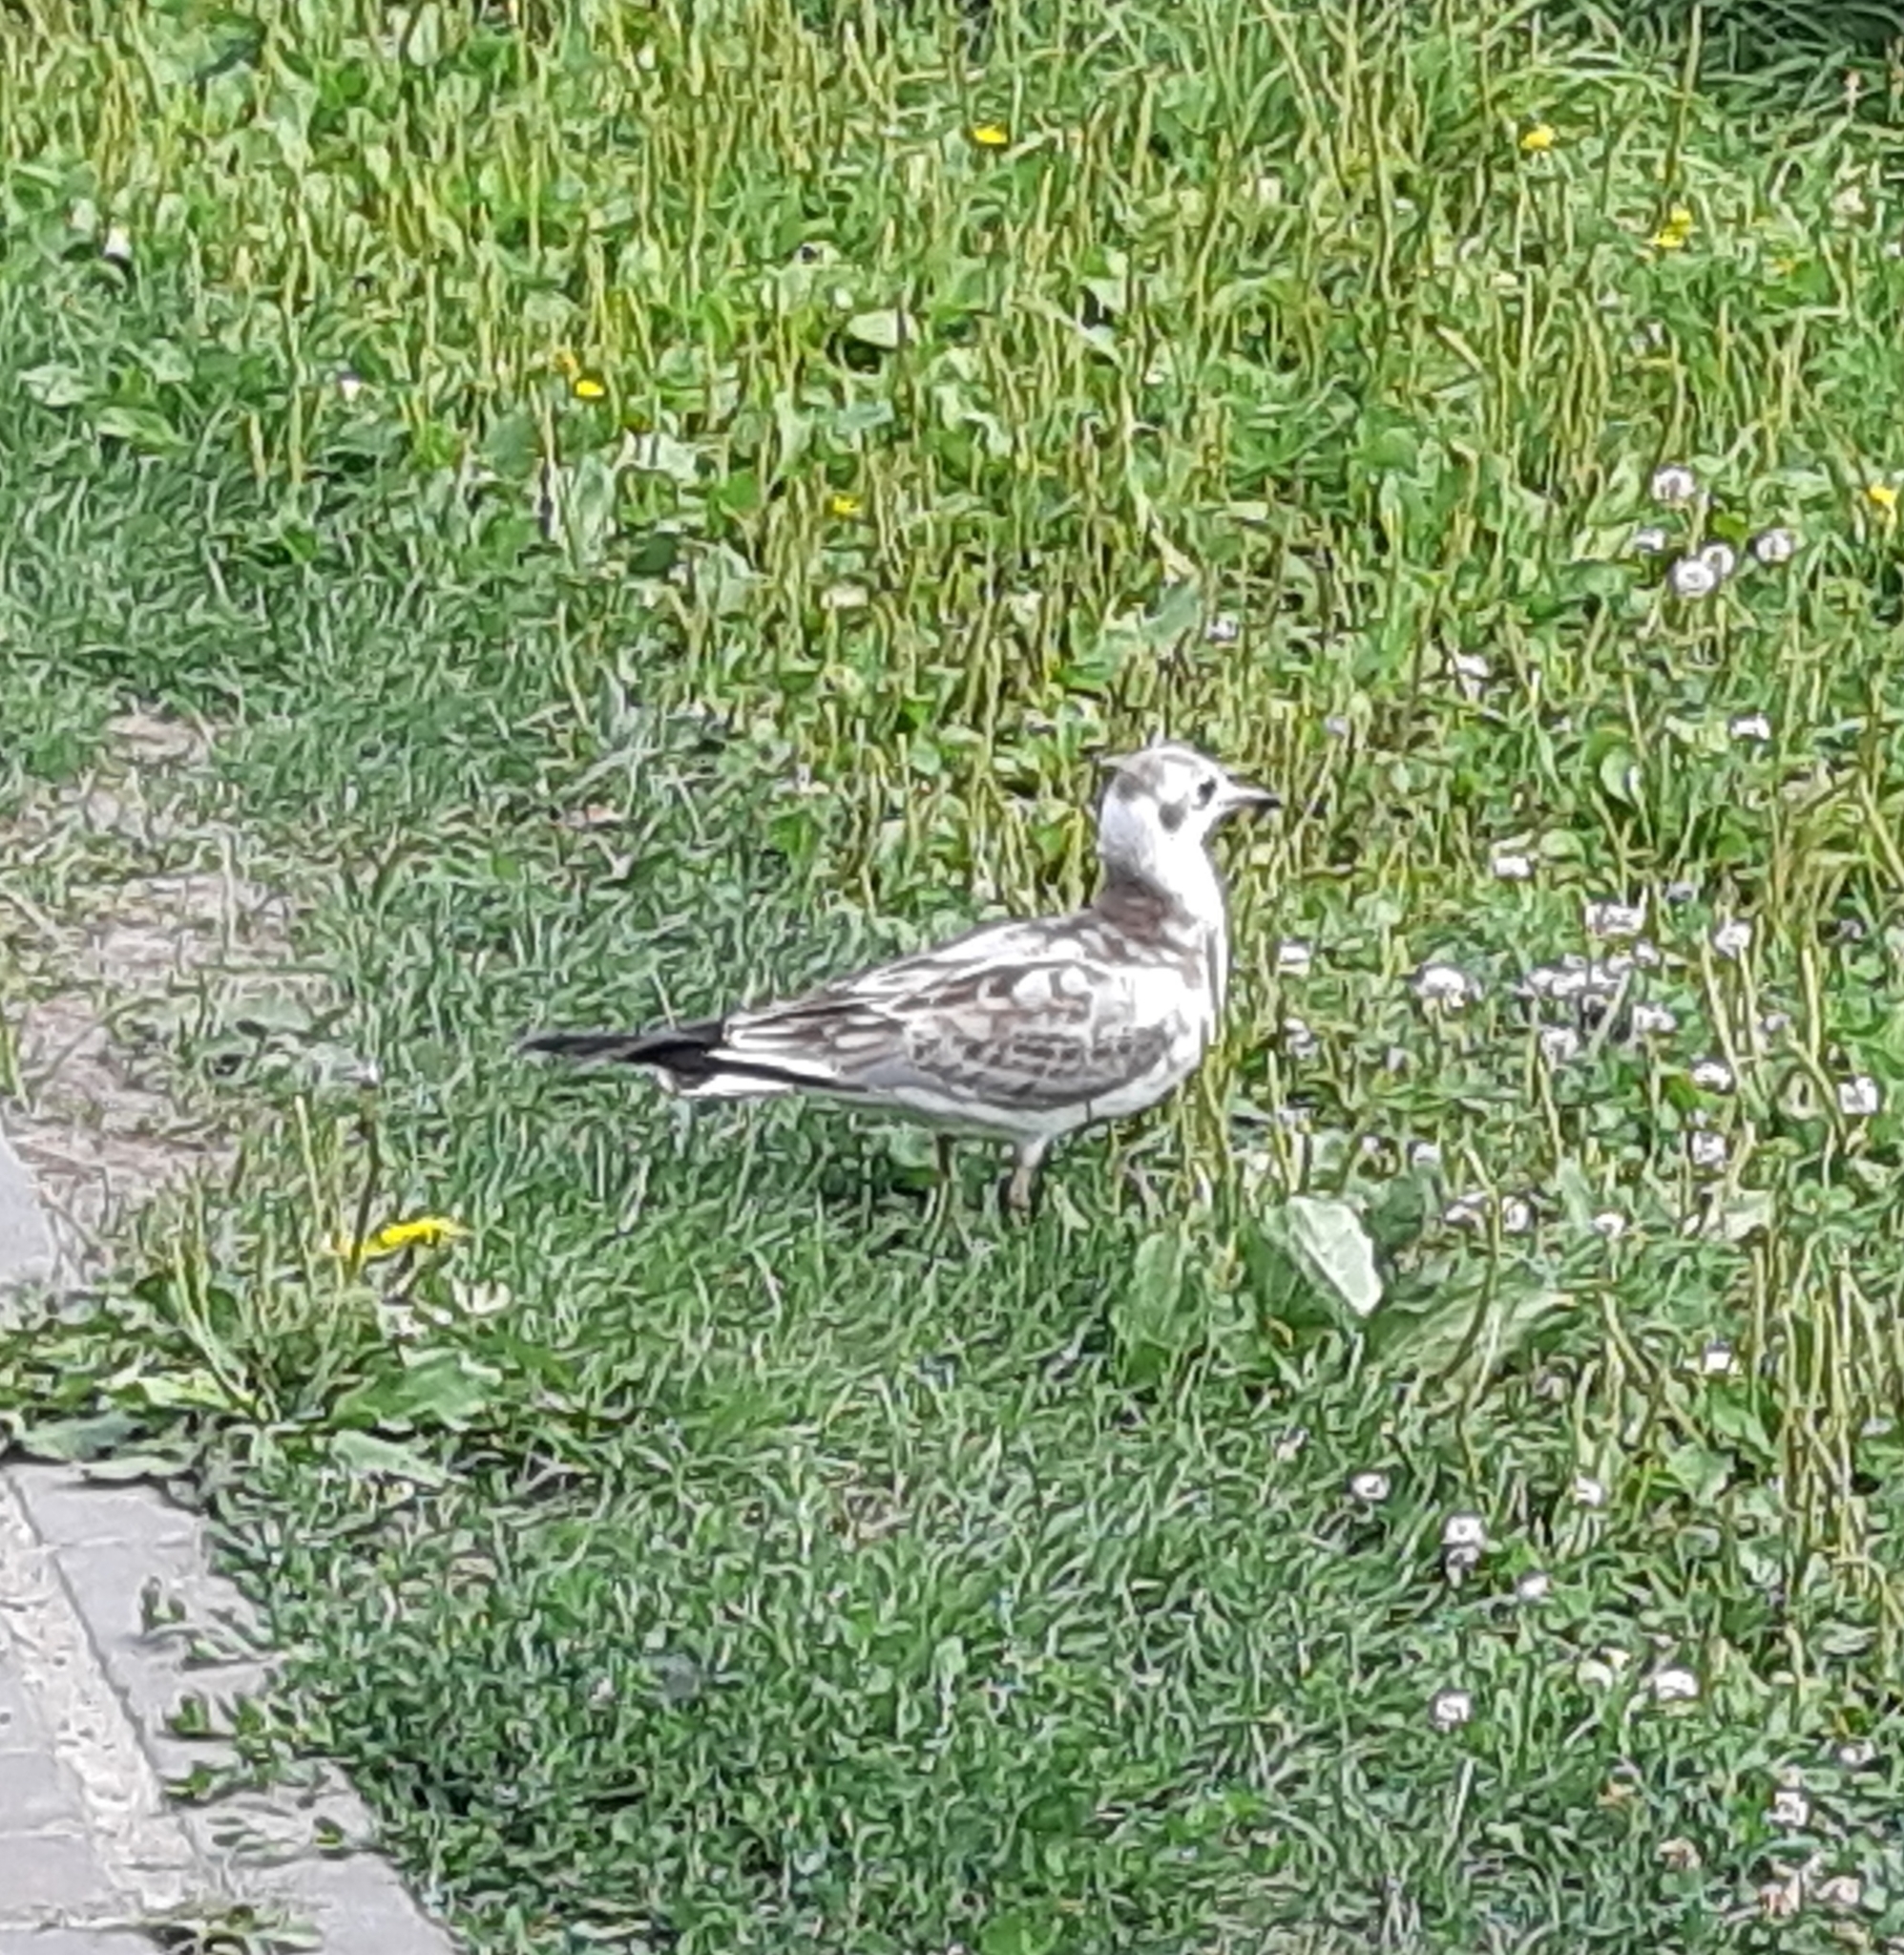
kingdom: Animalia
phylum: Chordata
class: Aves
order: Charadriiformes
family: Laridae
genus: Chroicocephalus
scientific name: Chroicocephalus ridibundus
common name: Black-headed gull
